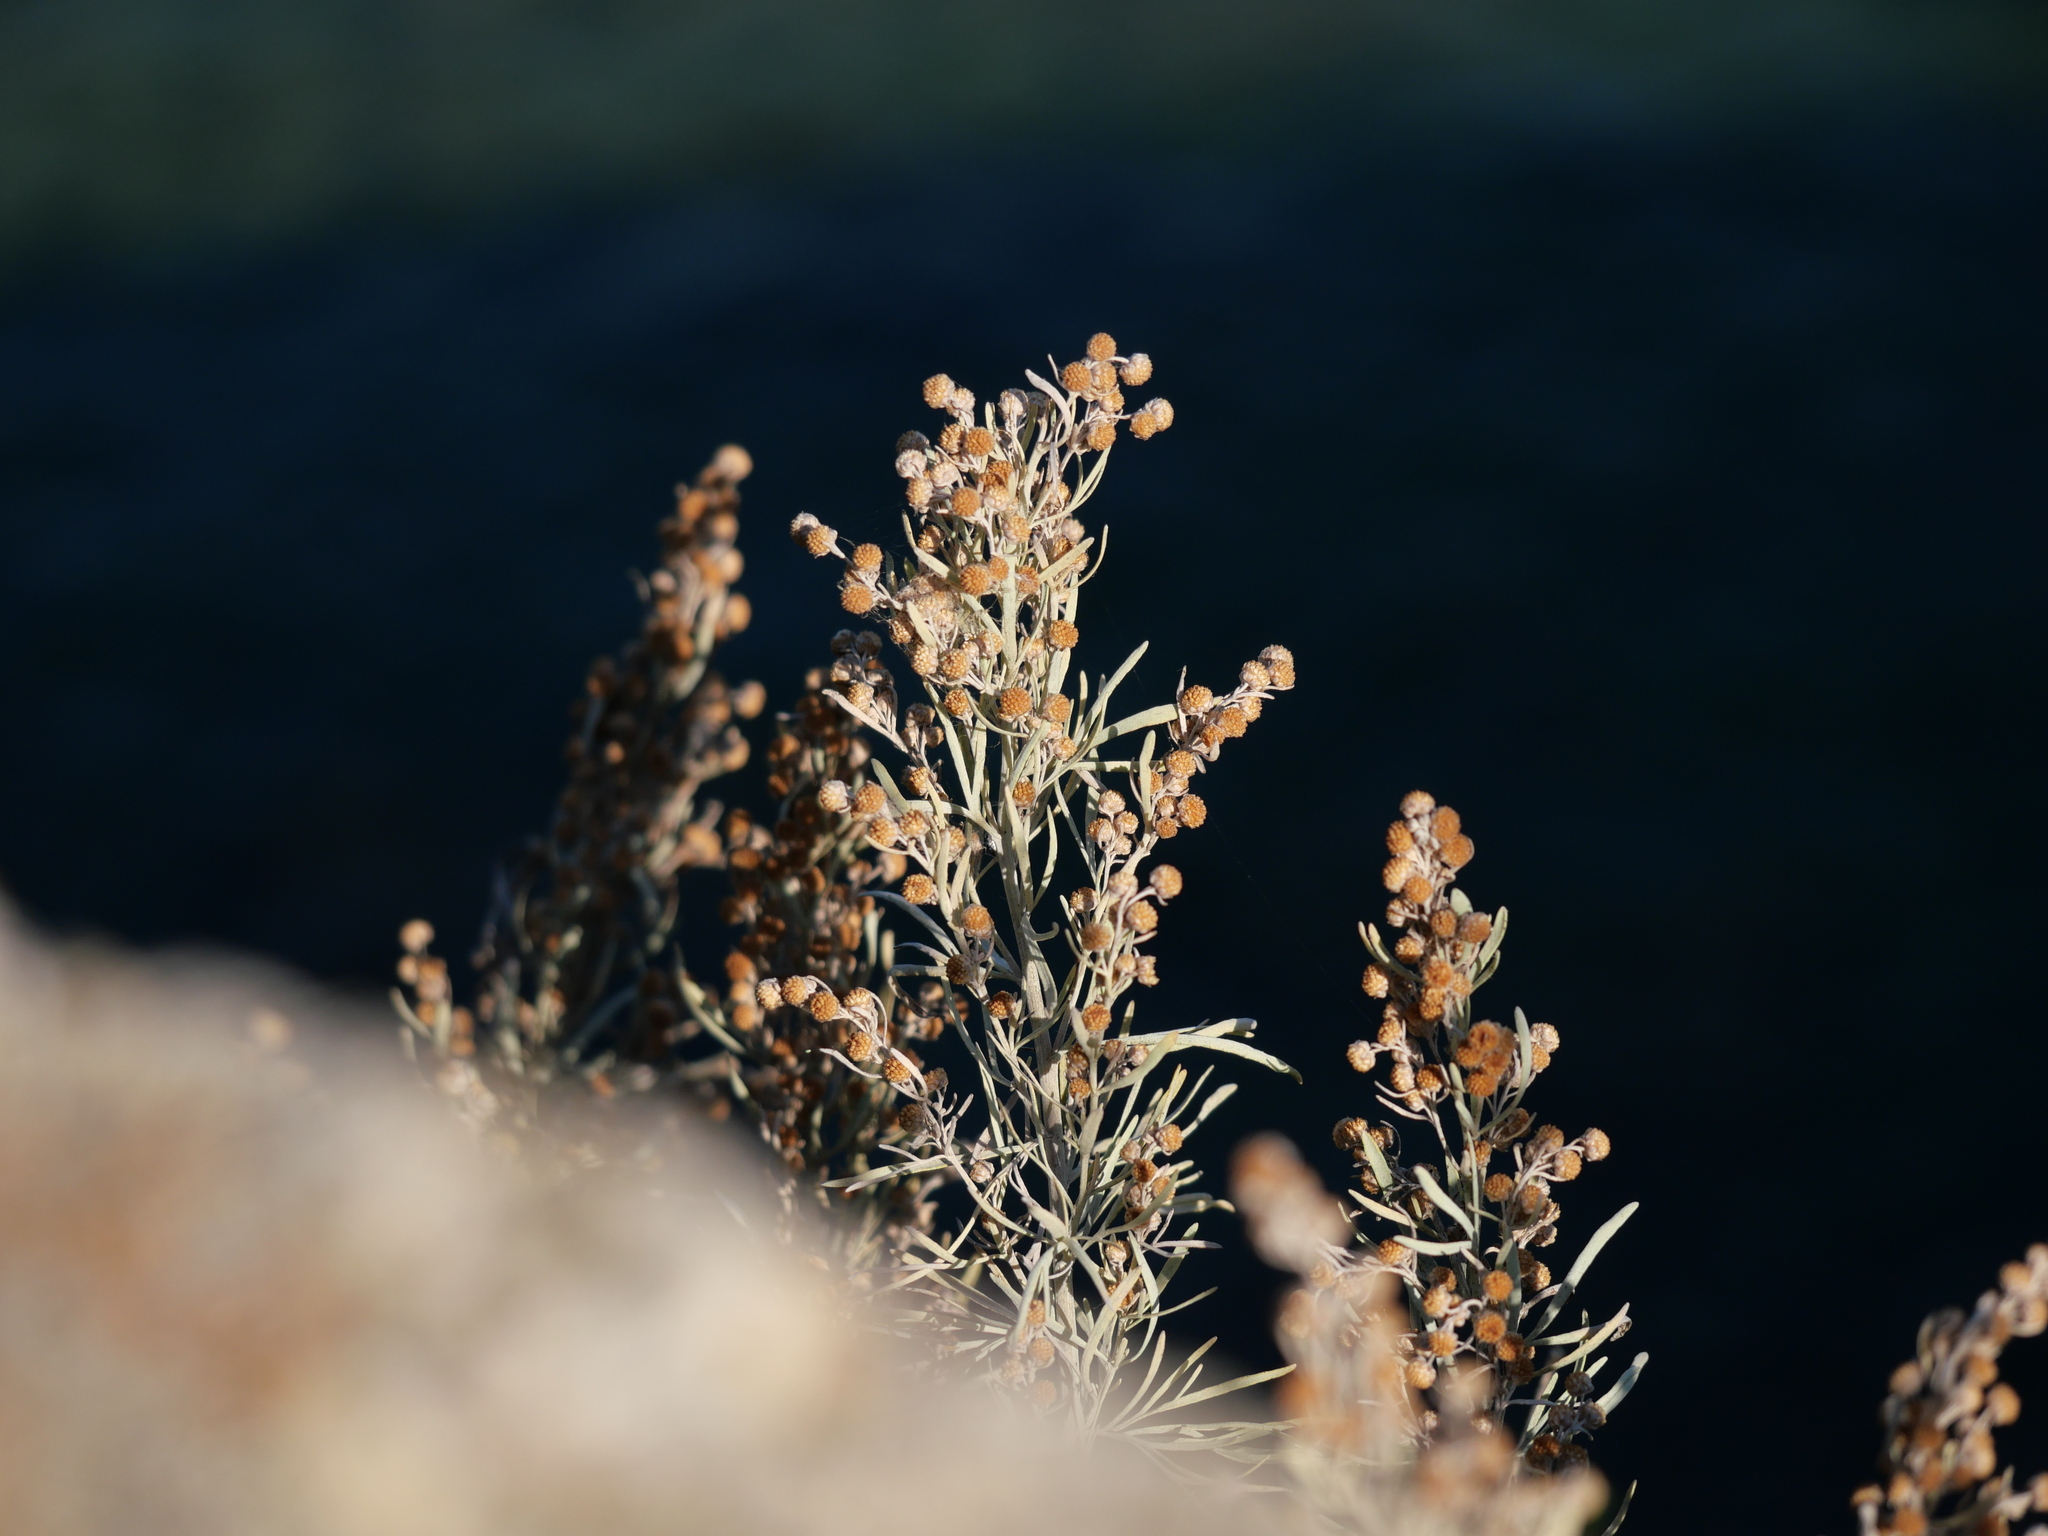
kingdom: Plantae
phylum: Tracheophyta
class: Magnoliopsida
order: Asterales
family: Asteraceae
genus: Artemisia
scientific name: Artemisia arborescens
